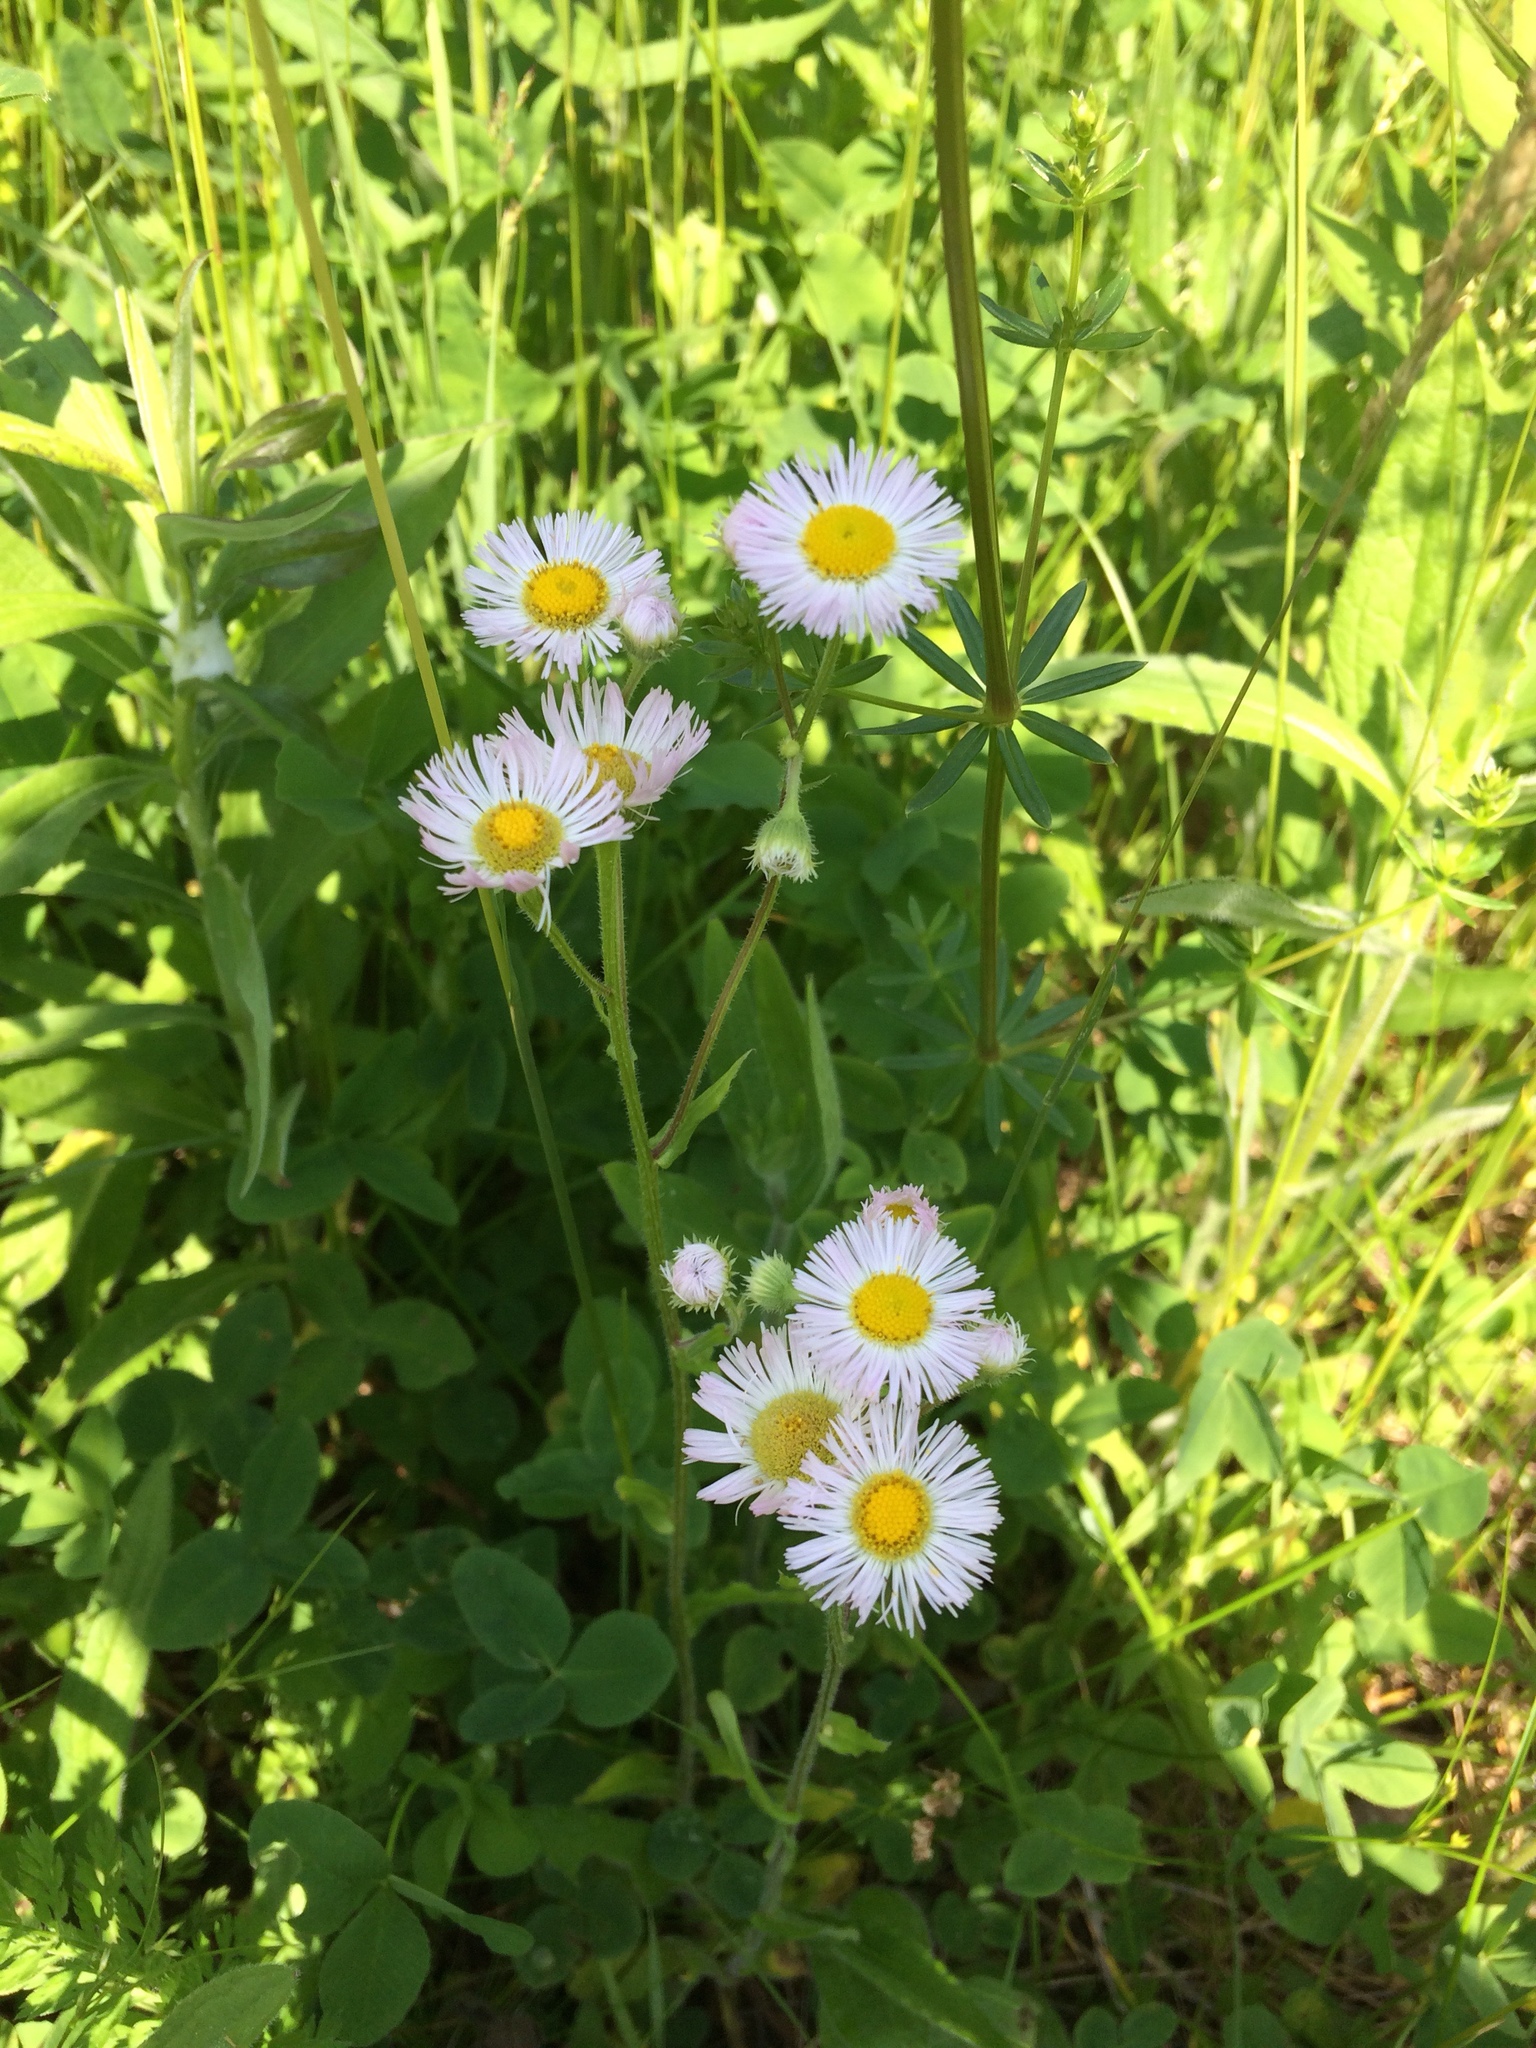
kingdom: Plantae
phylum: Tracheophyta
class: Magnoliopsida
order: Asterales
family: Asteraceae
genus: Erigeron
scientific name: Erigeron philadelphicus
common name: Robin's-plantain
